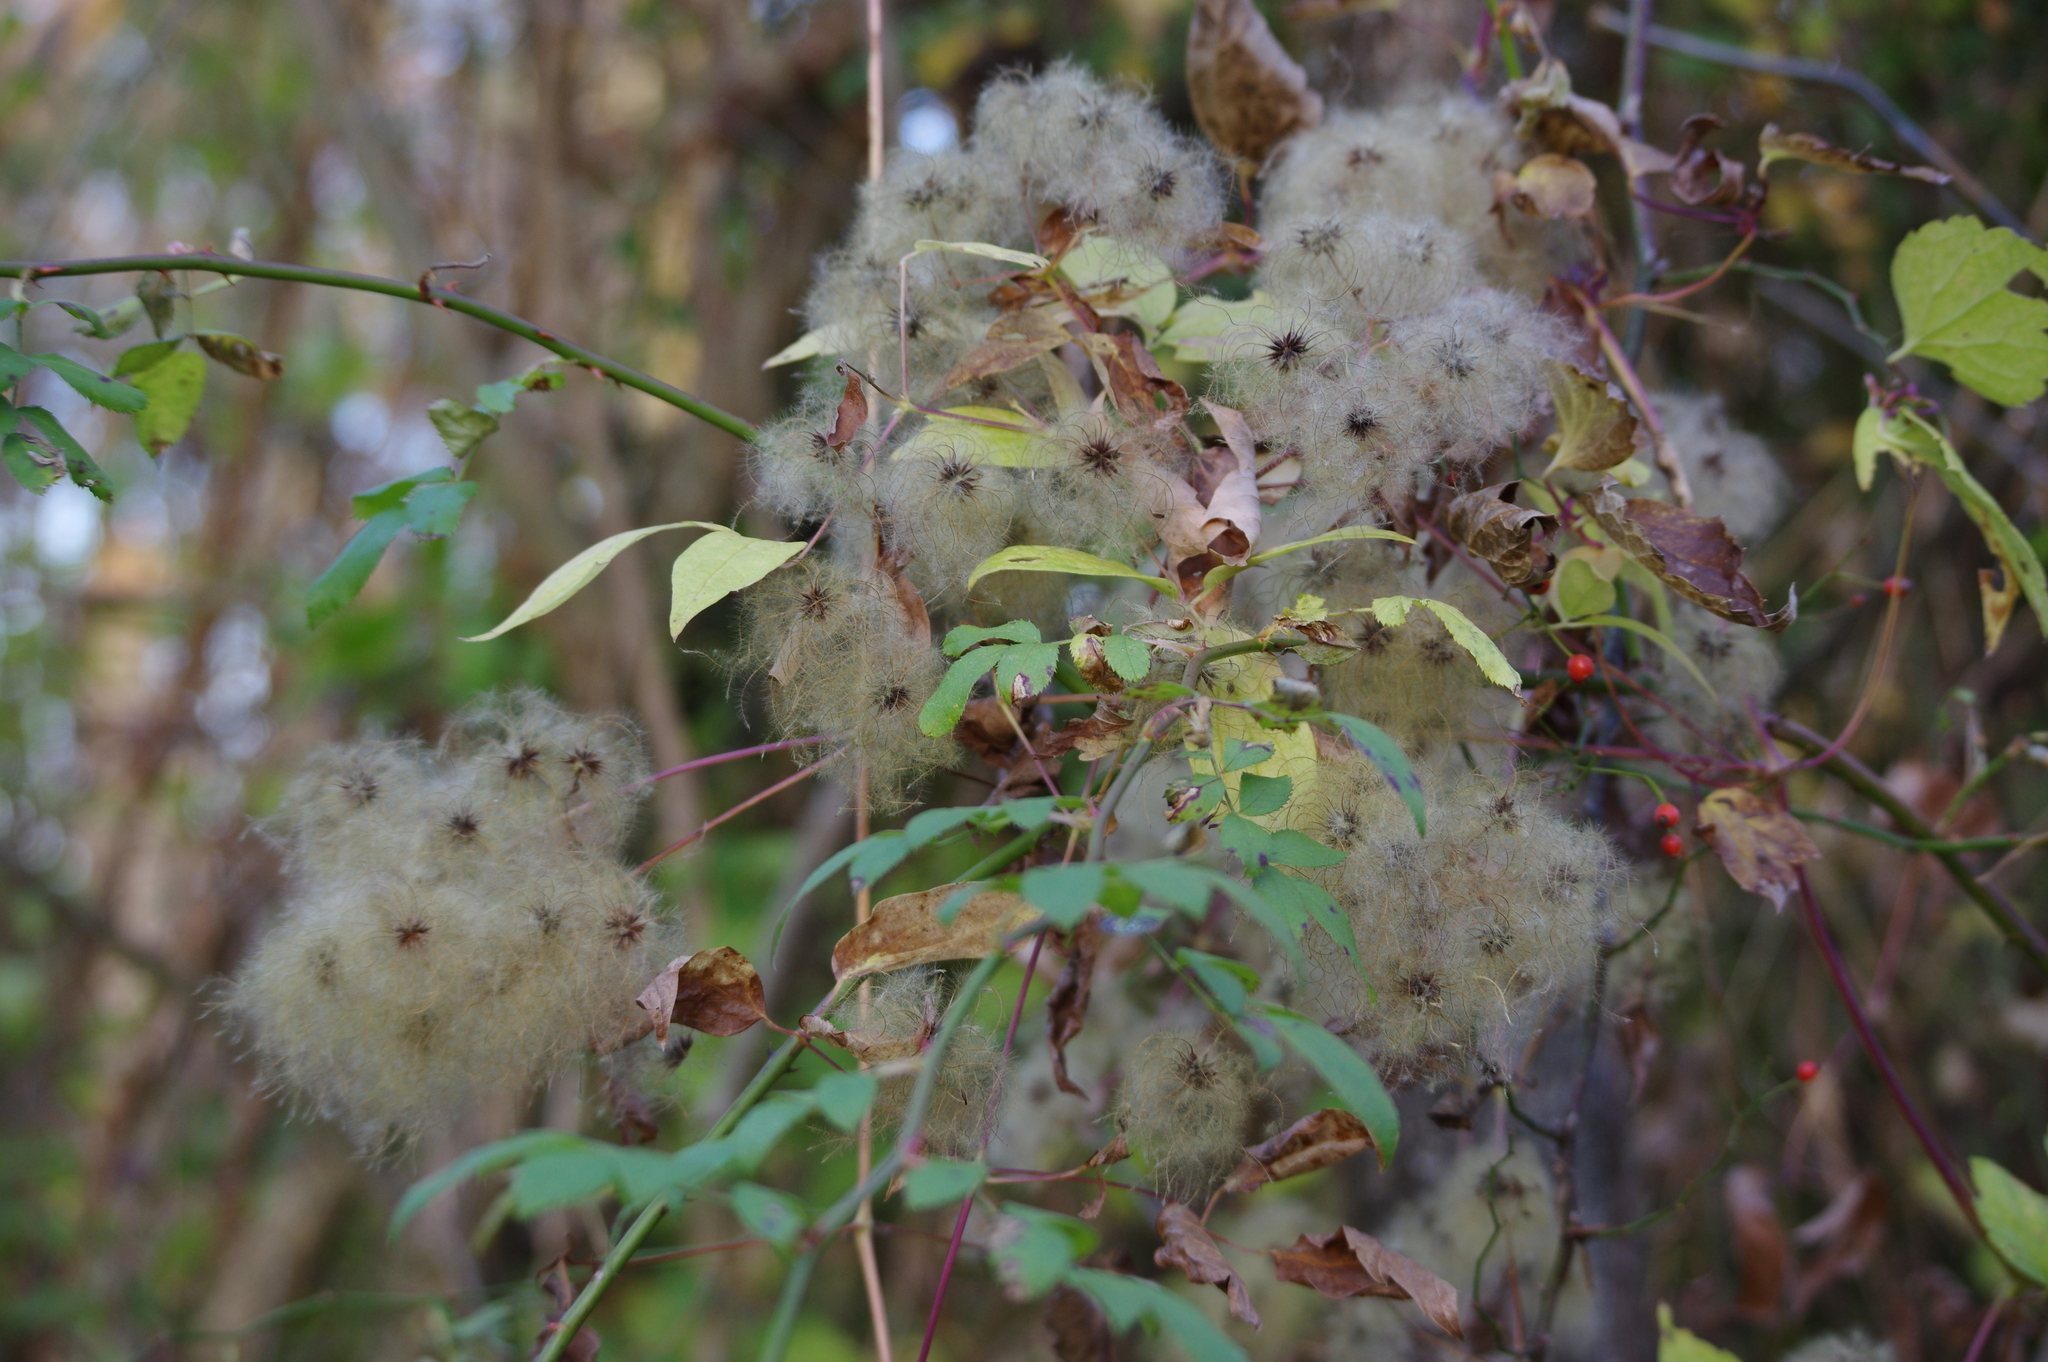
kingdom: Plantae
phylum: Tracheophyta
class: Magnoliopsida
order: Ranunculales
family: Ranunculaceae
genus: Clematis
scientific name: Clematis virginiana
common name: Virgin's-bower
